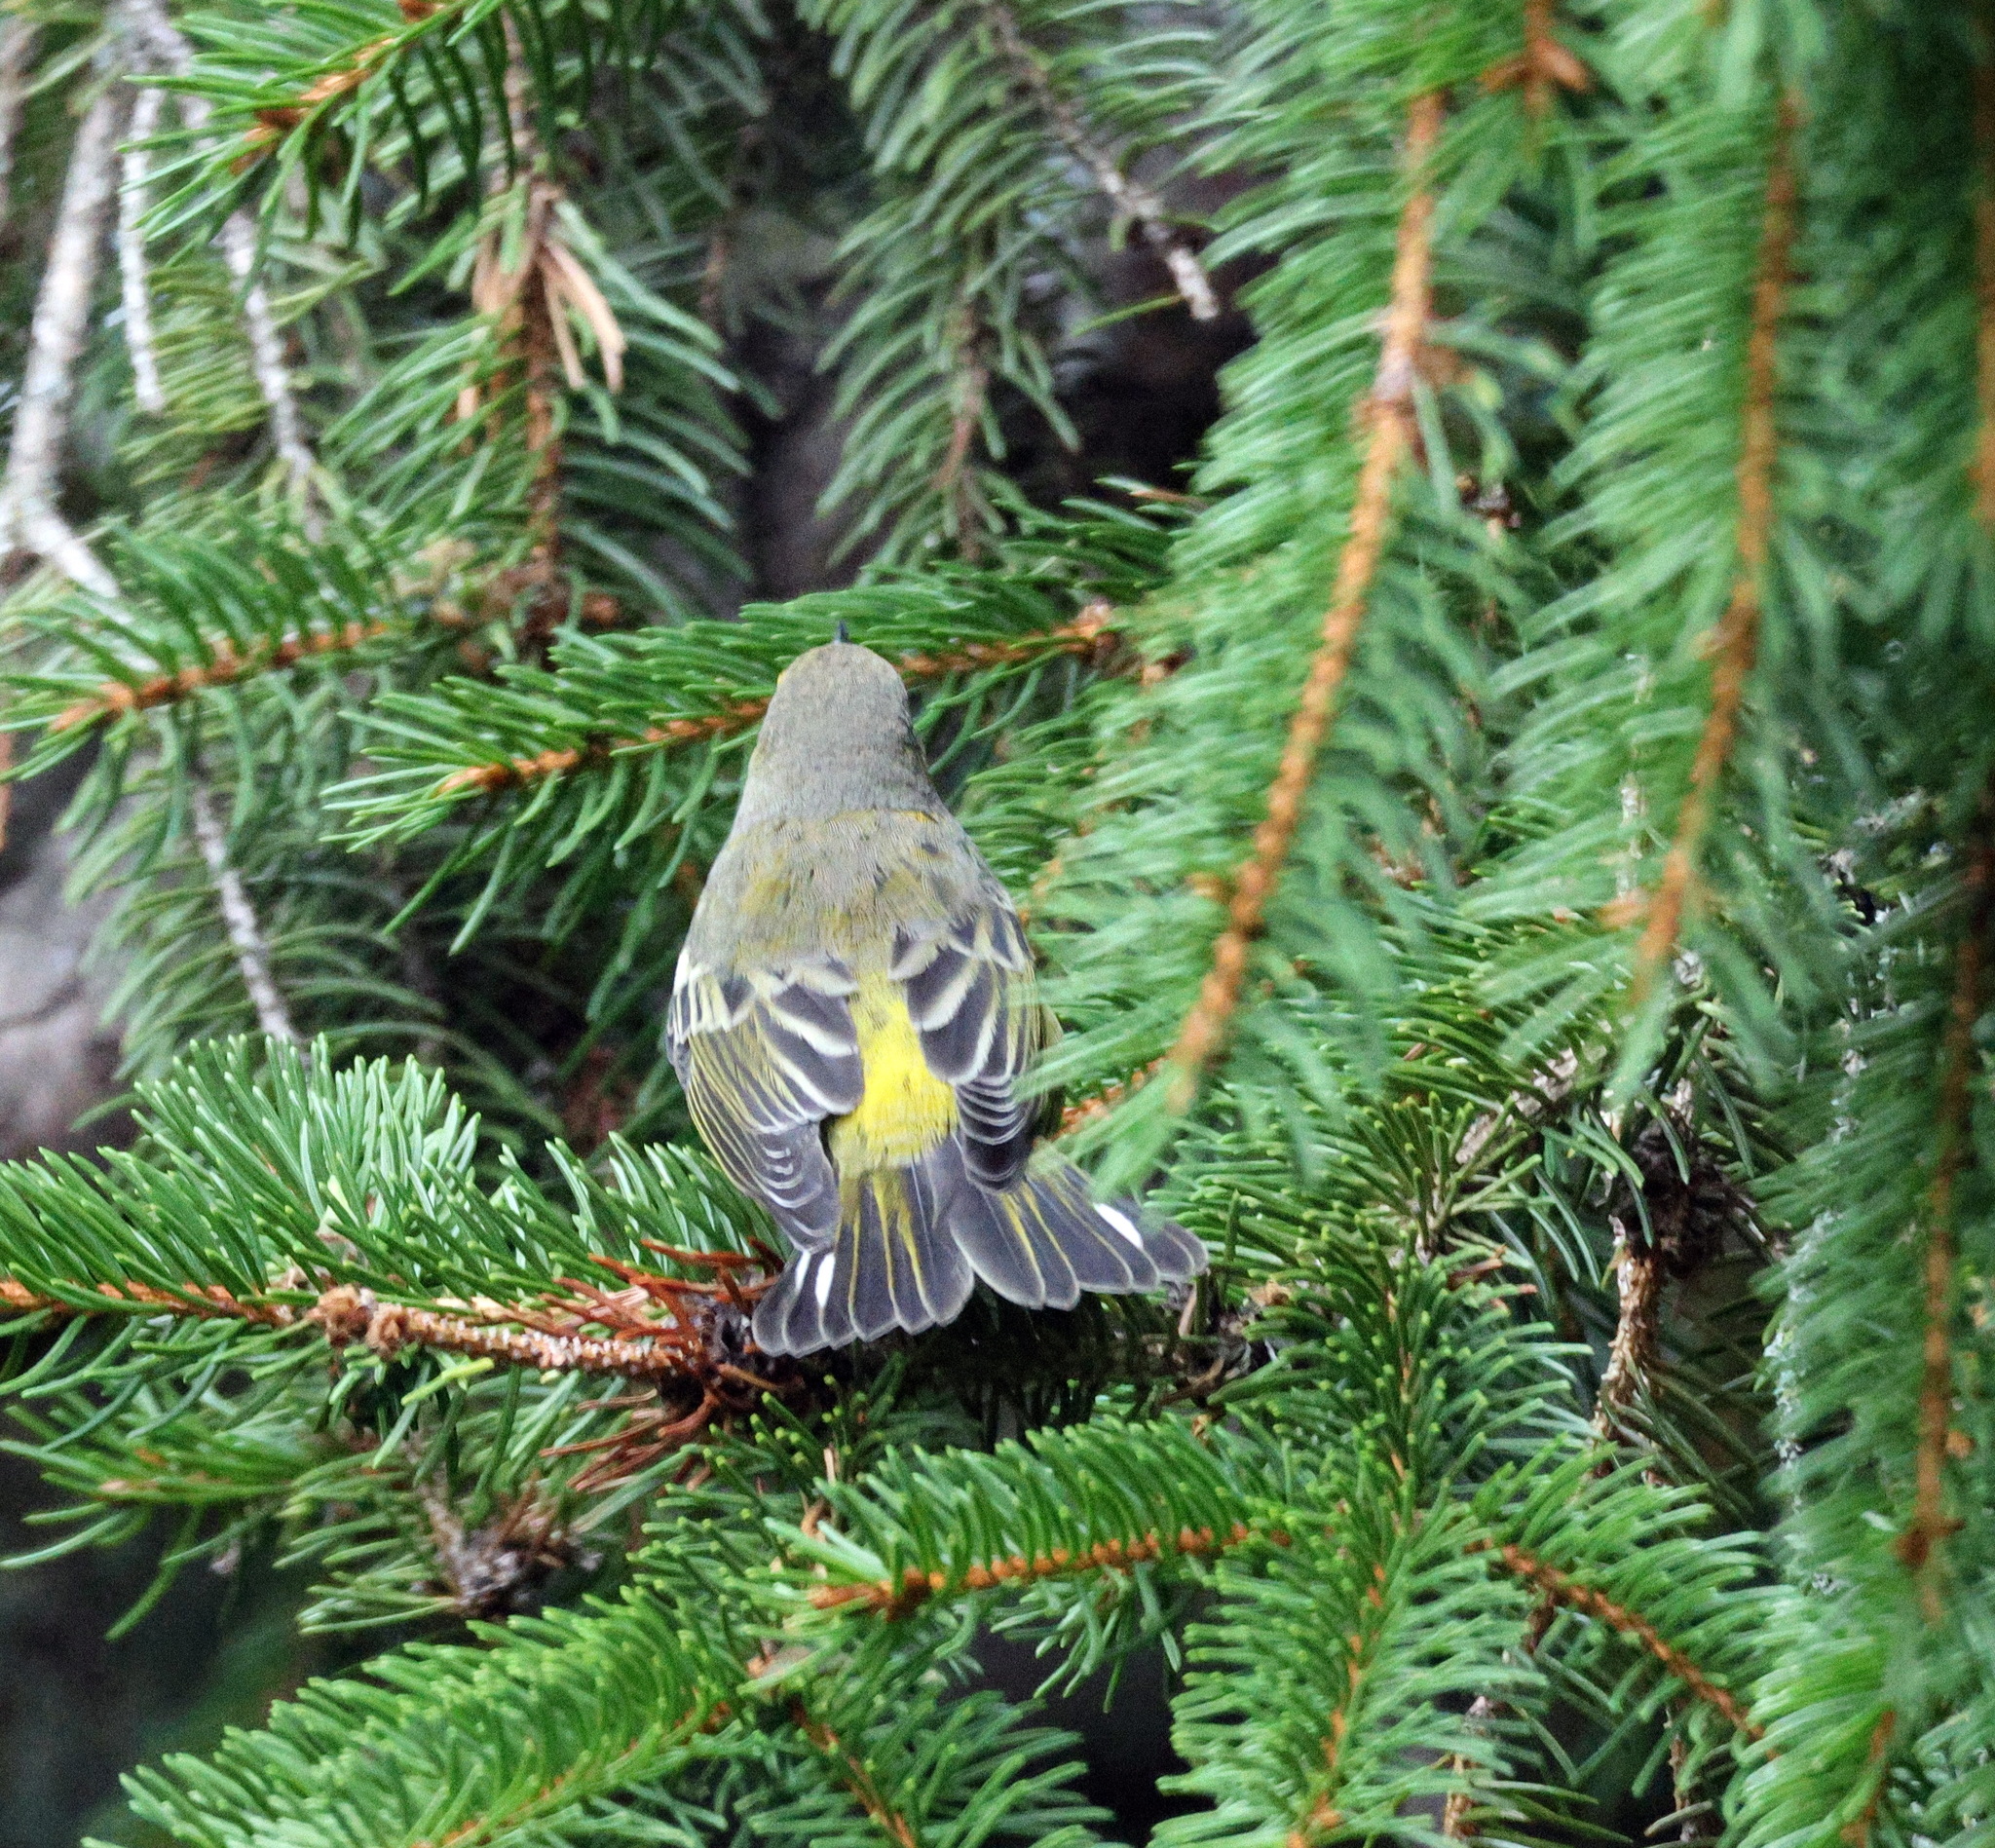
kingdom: Animalia
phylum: Chordata
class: Aves
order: Passeriformes
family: Parulidae
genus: Setophaga
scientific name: Setophaga tigrina
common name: Cape may warbler
